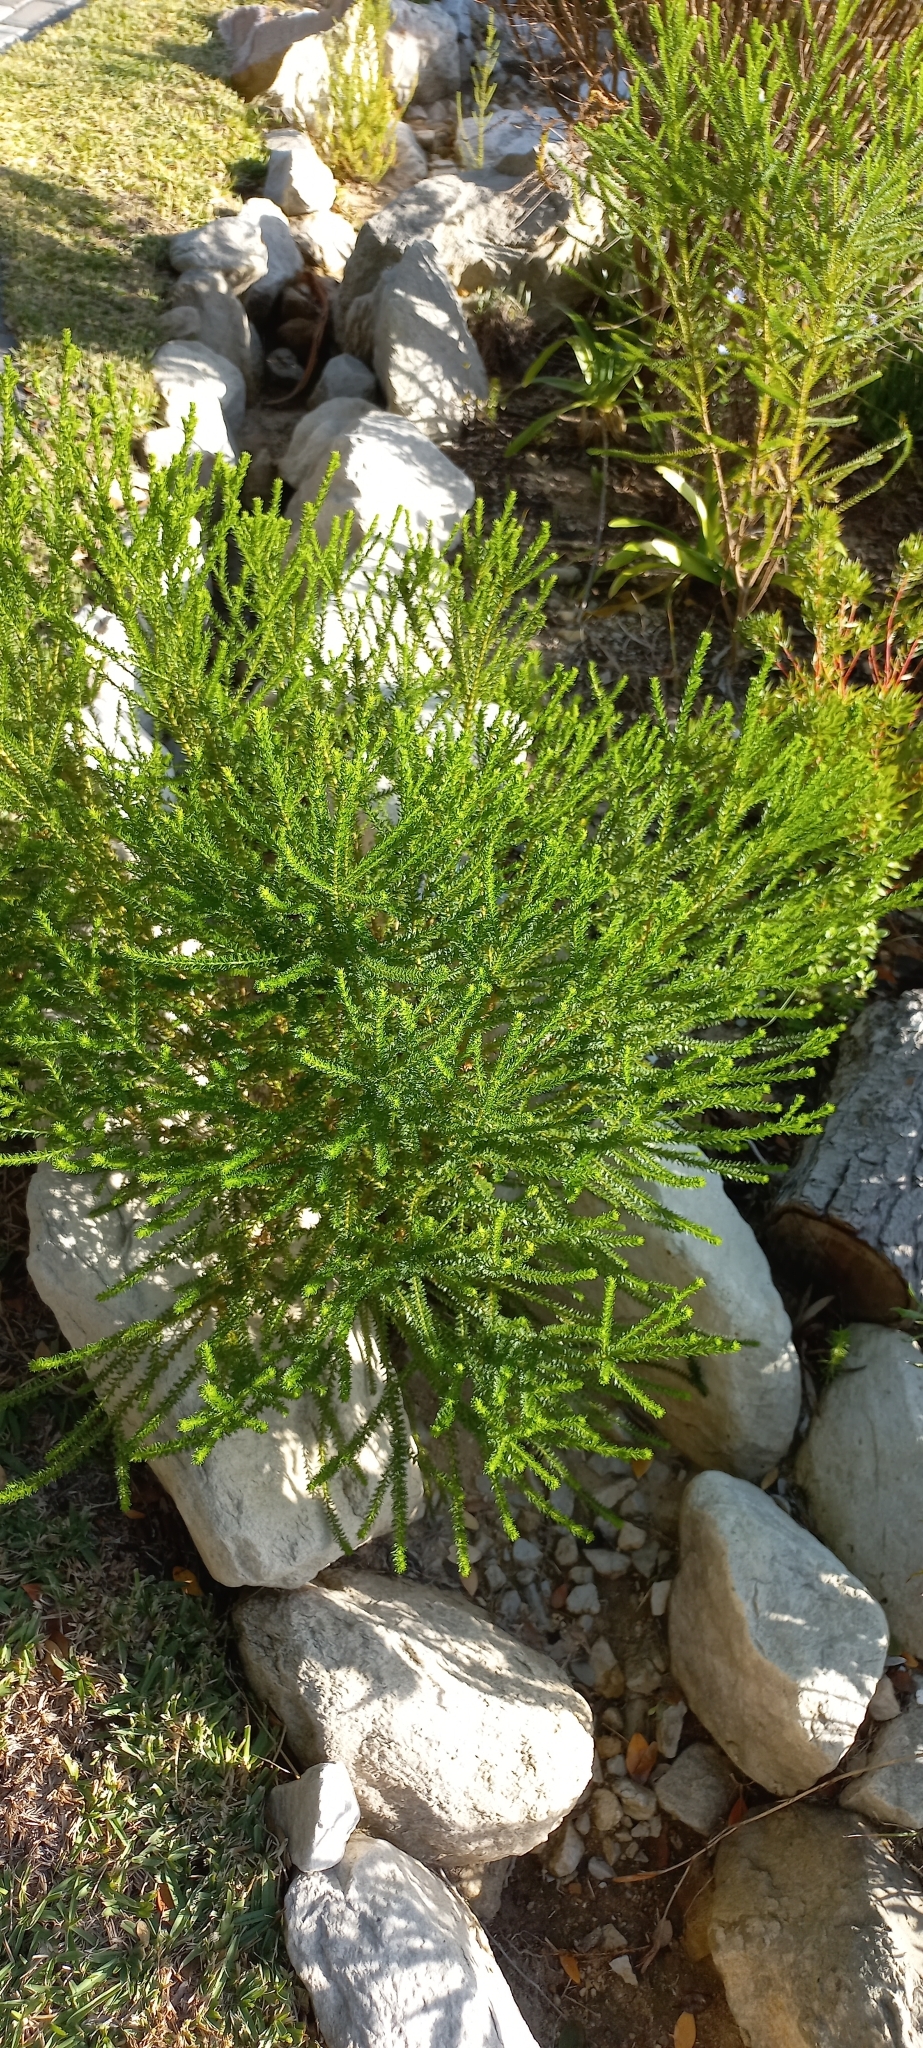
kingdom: Plantae
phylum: Tracheophyta
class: Magnoliopsida
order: Asterales
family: Asteraceae
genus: Euryops
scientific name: Euryops virgineus
